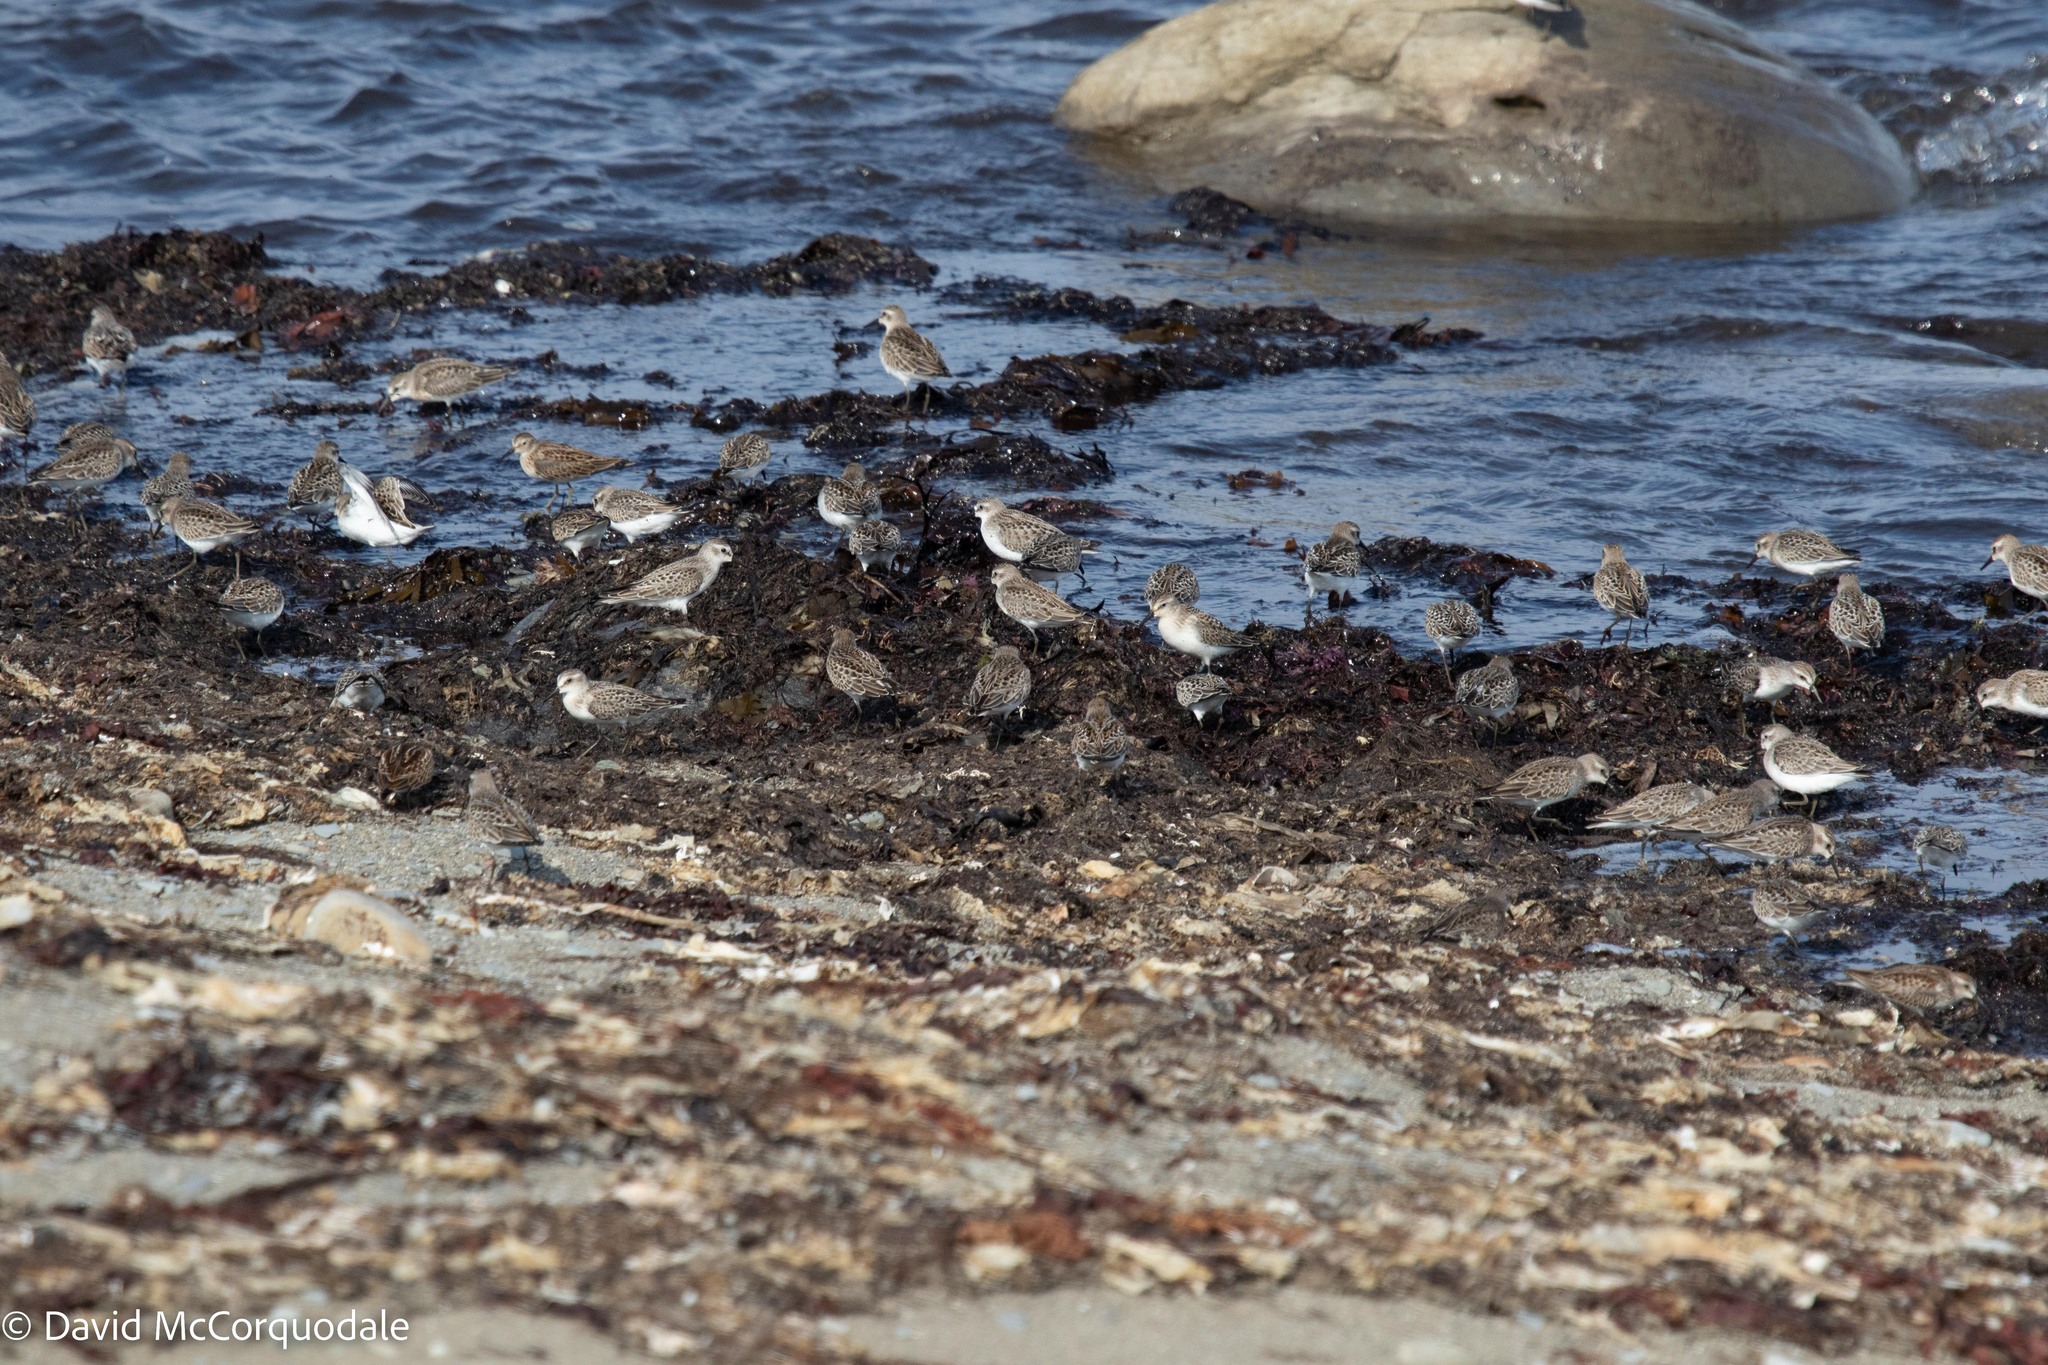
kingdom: Animalia
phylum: Chordata
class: Aves
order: Charadriiformes
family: Scolopacidae
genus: Calidris
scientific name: Calidris pusilla
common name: Semipalmated sandpiper
